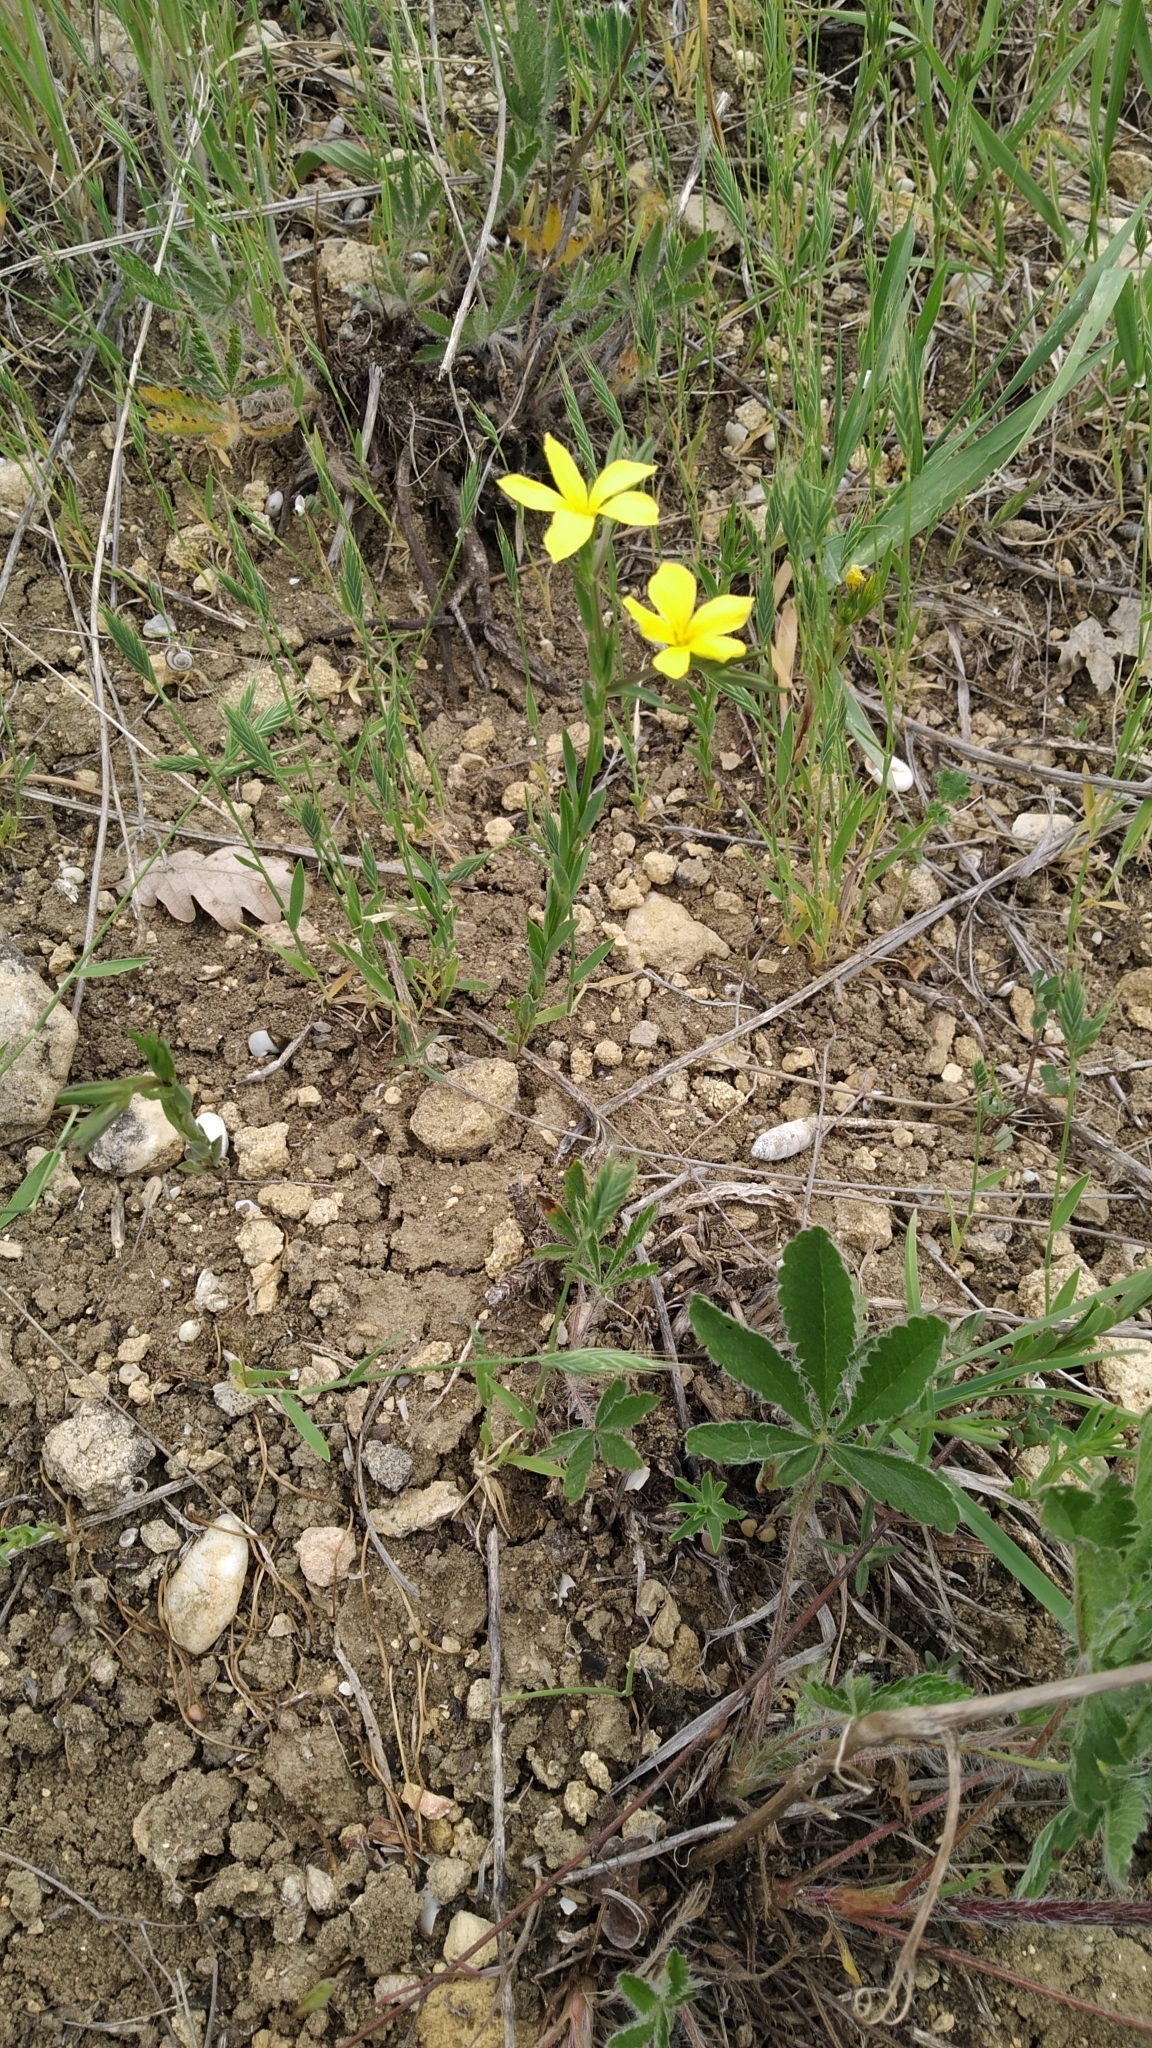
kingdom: Plantae
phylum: Tracheophyta
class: Magnoliopsida
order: Malpighiales
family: Linaceae
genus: Linum
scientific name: Linum nodiflorum
